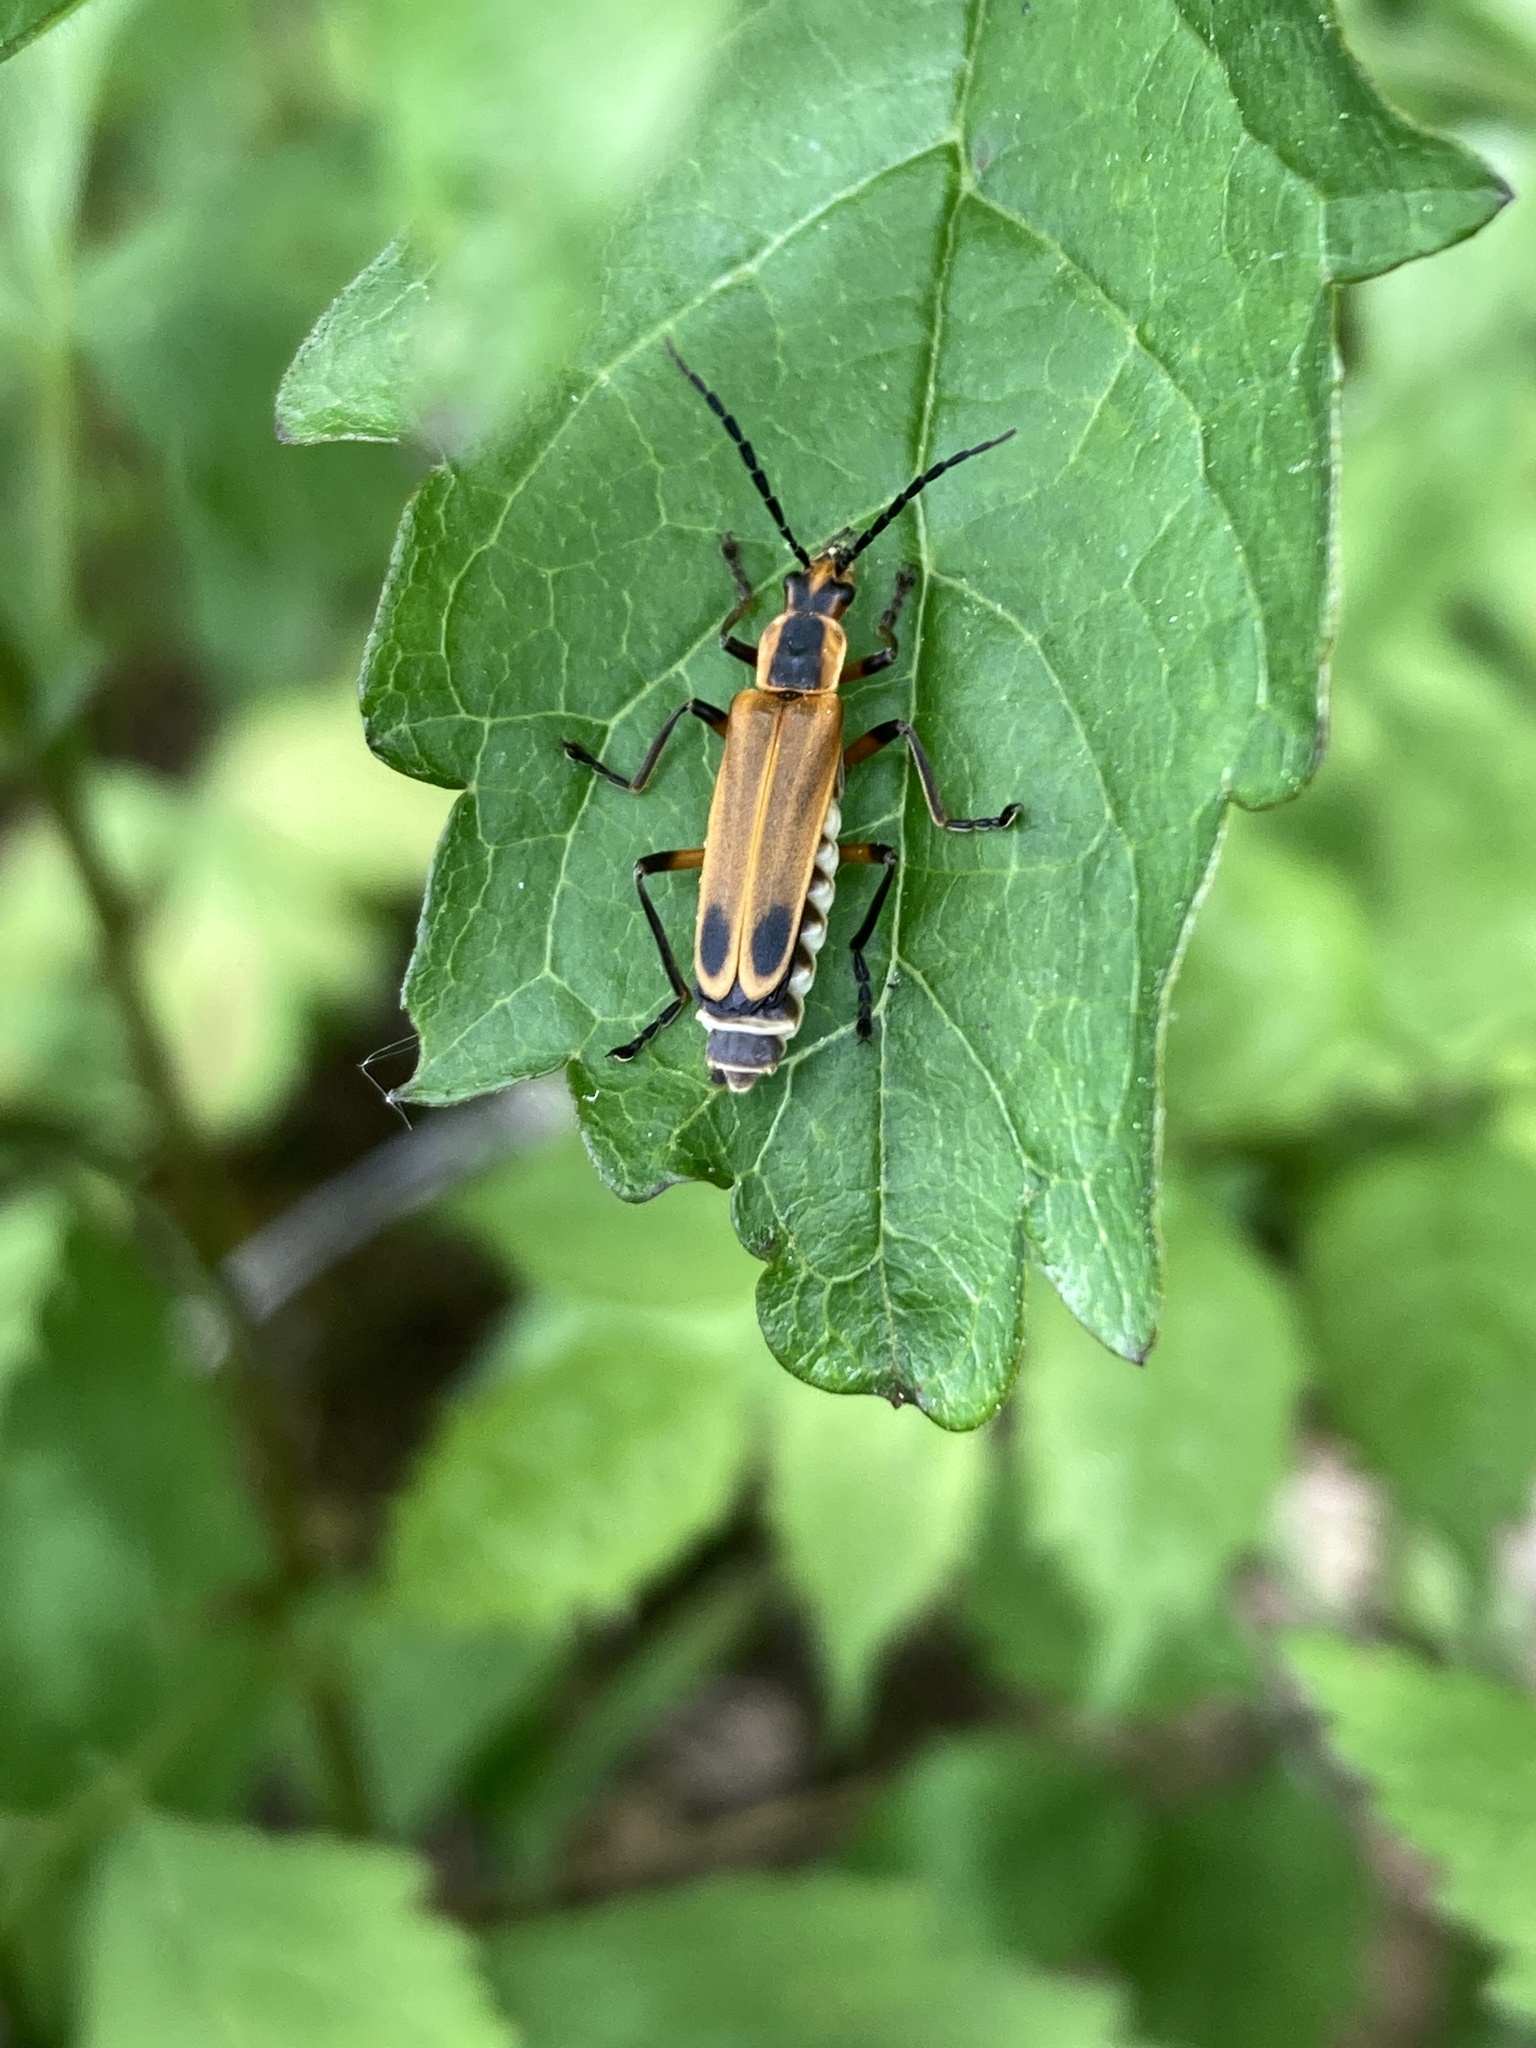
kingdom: Animalia
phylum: Arthropoda
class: Insecta
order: Coleoptera
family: Cantharidae
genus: Chauliognathus
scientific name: Chauliognathus marginatus
